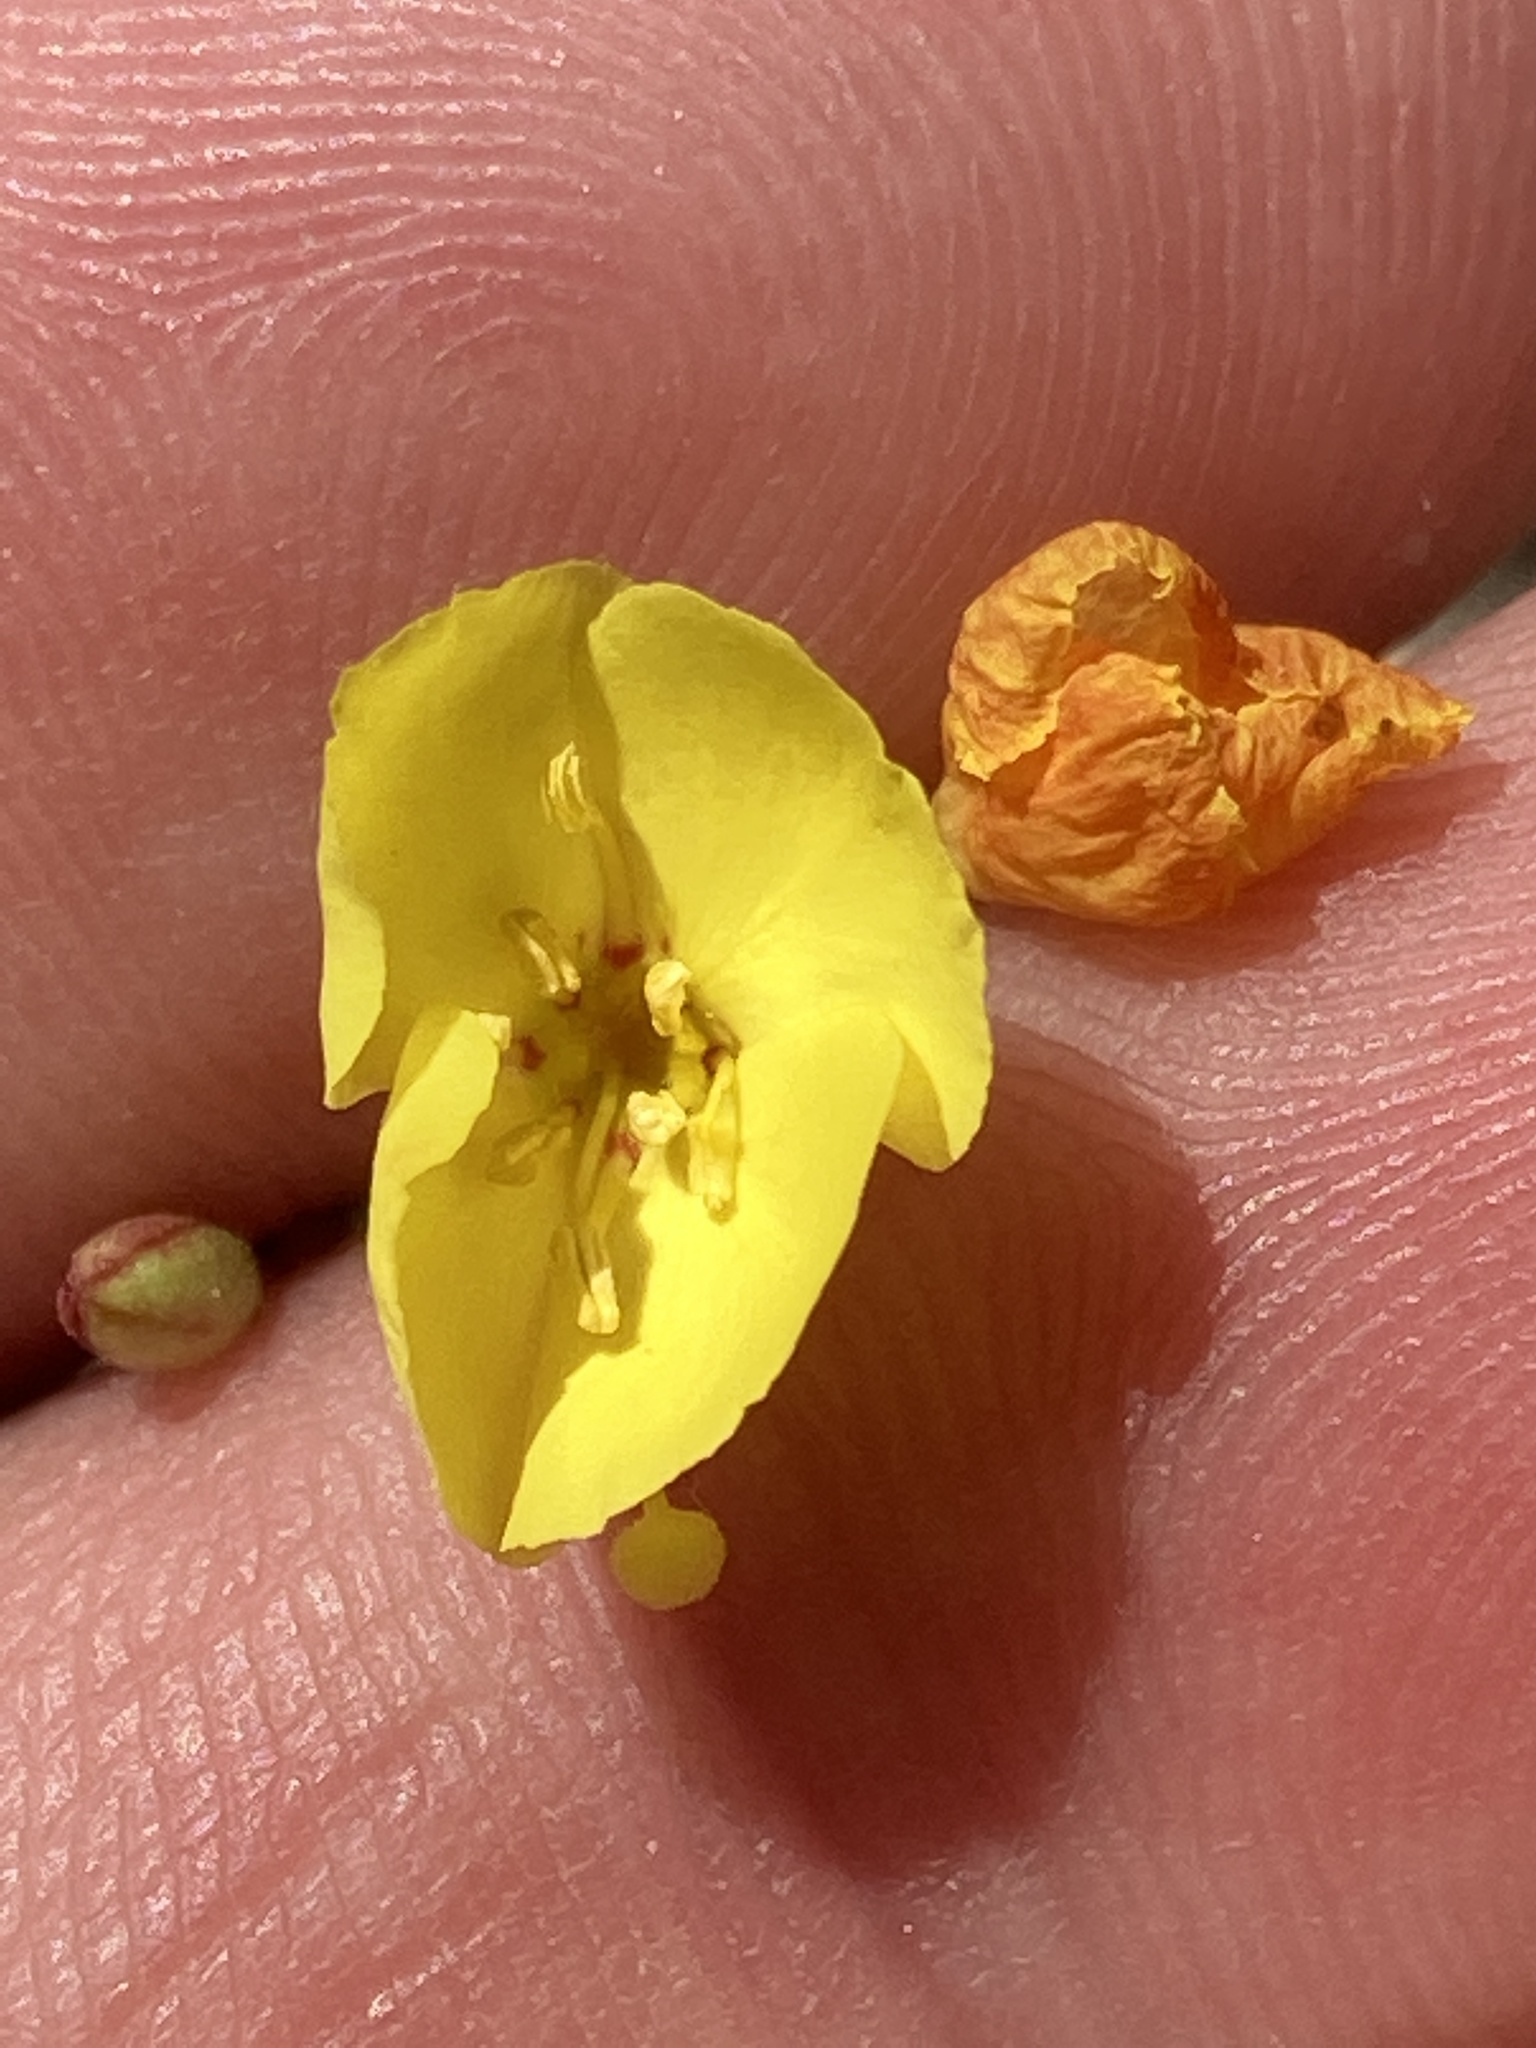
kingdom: Plantae
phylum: Tracheophyta
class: Magnoliopsida
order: Myrtales
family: Onagraceae
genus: Camissonia
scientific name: Camissonia campestris
